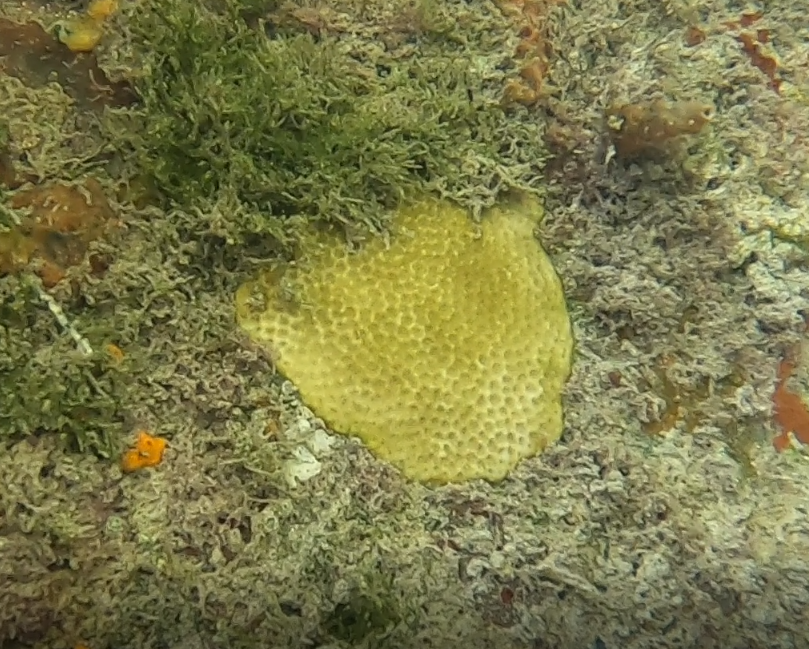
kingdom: Animalia
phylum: Cnidaria
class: Anthozoa
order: Scleractinia
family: Poritidae
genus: Porites
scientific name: Porites astreoides
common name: Mustard hill coral
